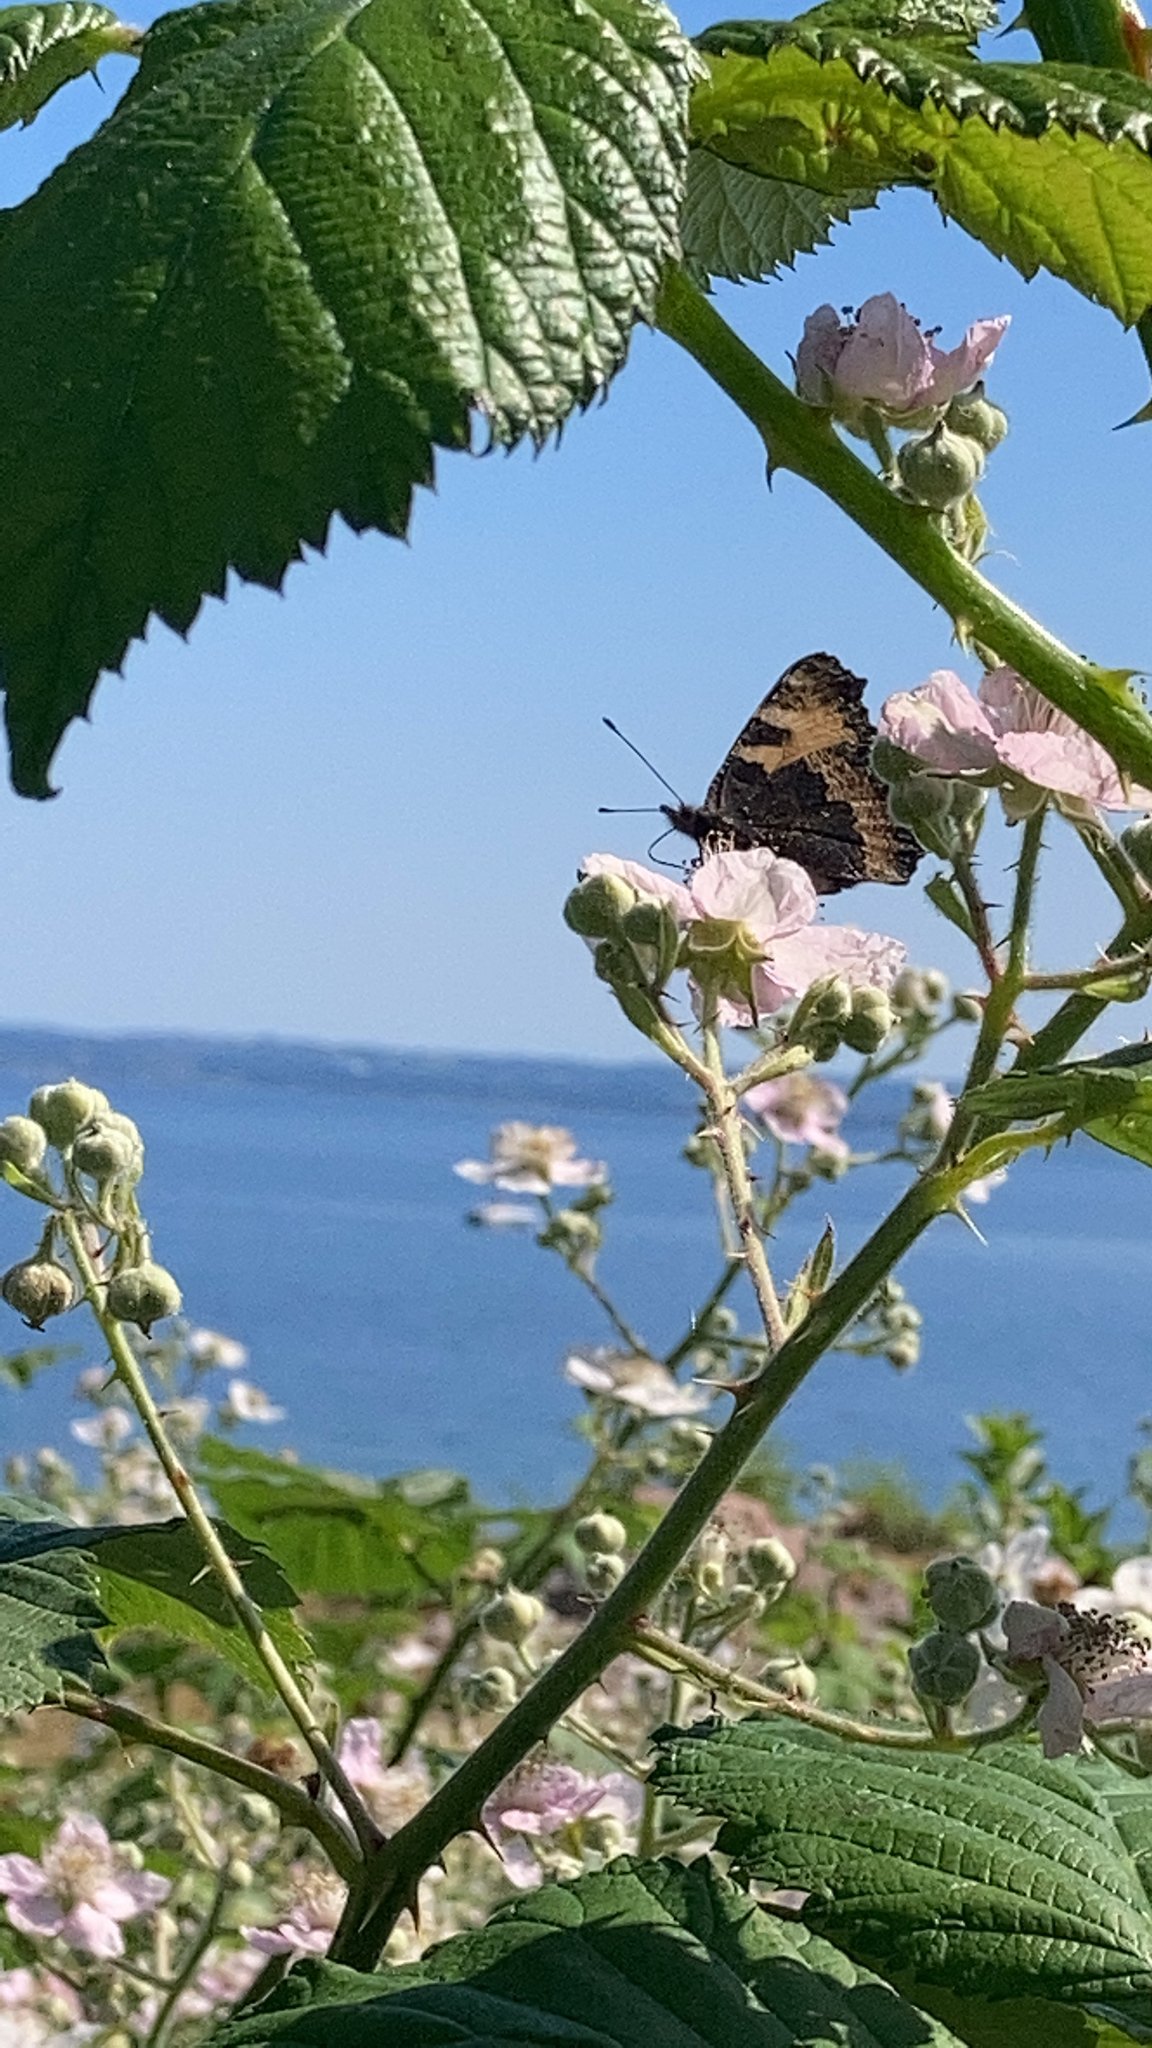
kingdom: Animalia
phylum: Arthropoda
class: Insecta
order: Lepidoptera
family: Nymphalidae
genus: Aglais
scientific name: Aglais urticae
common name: Small tortoiseshell
